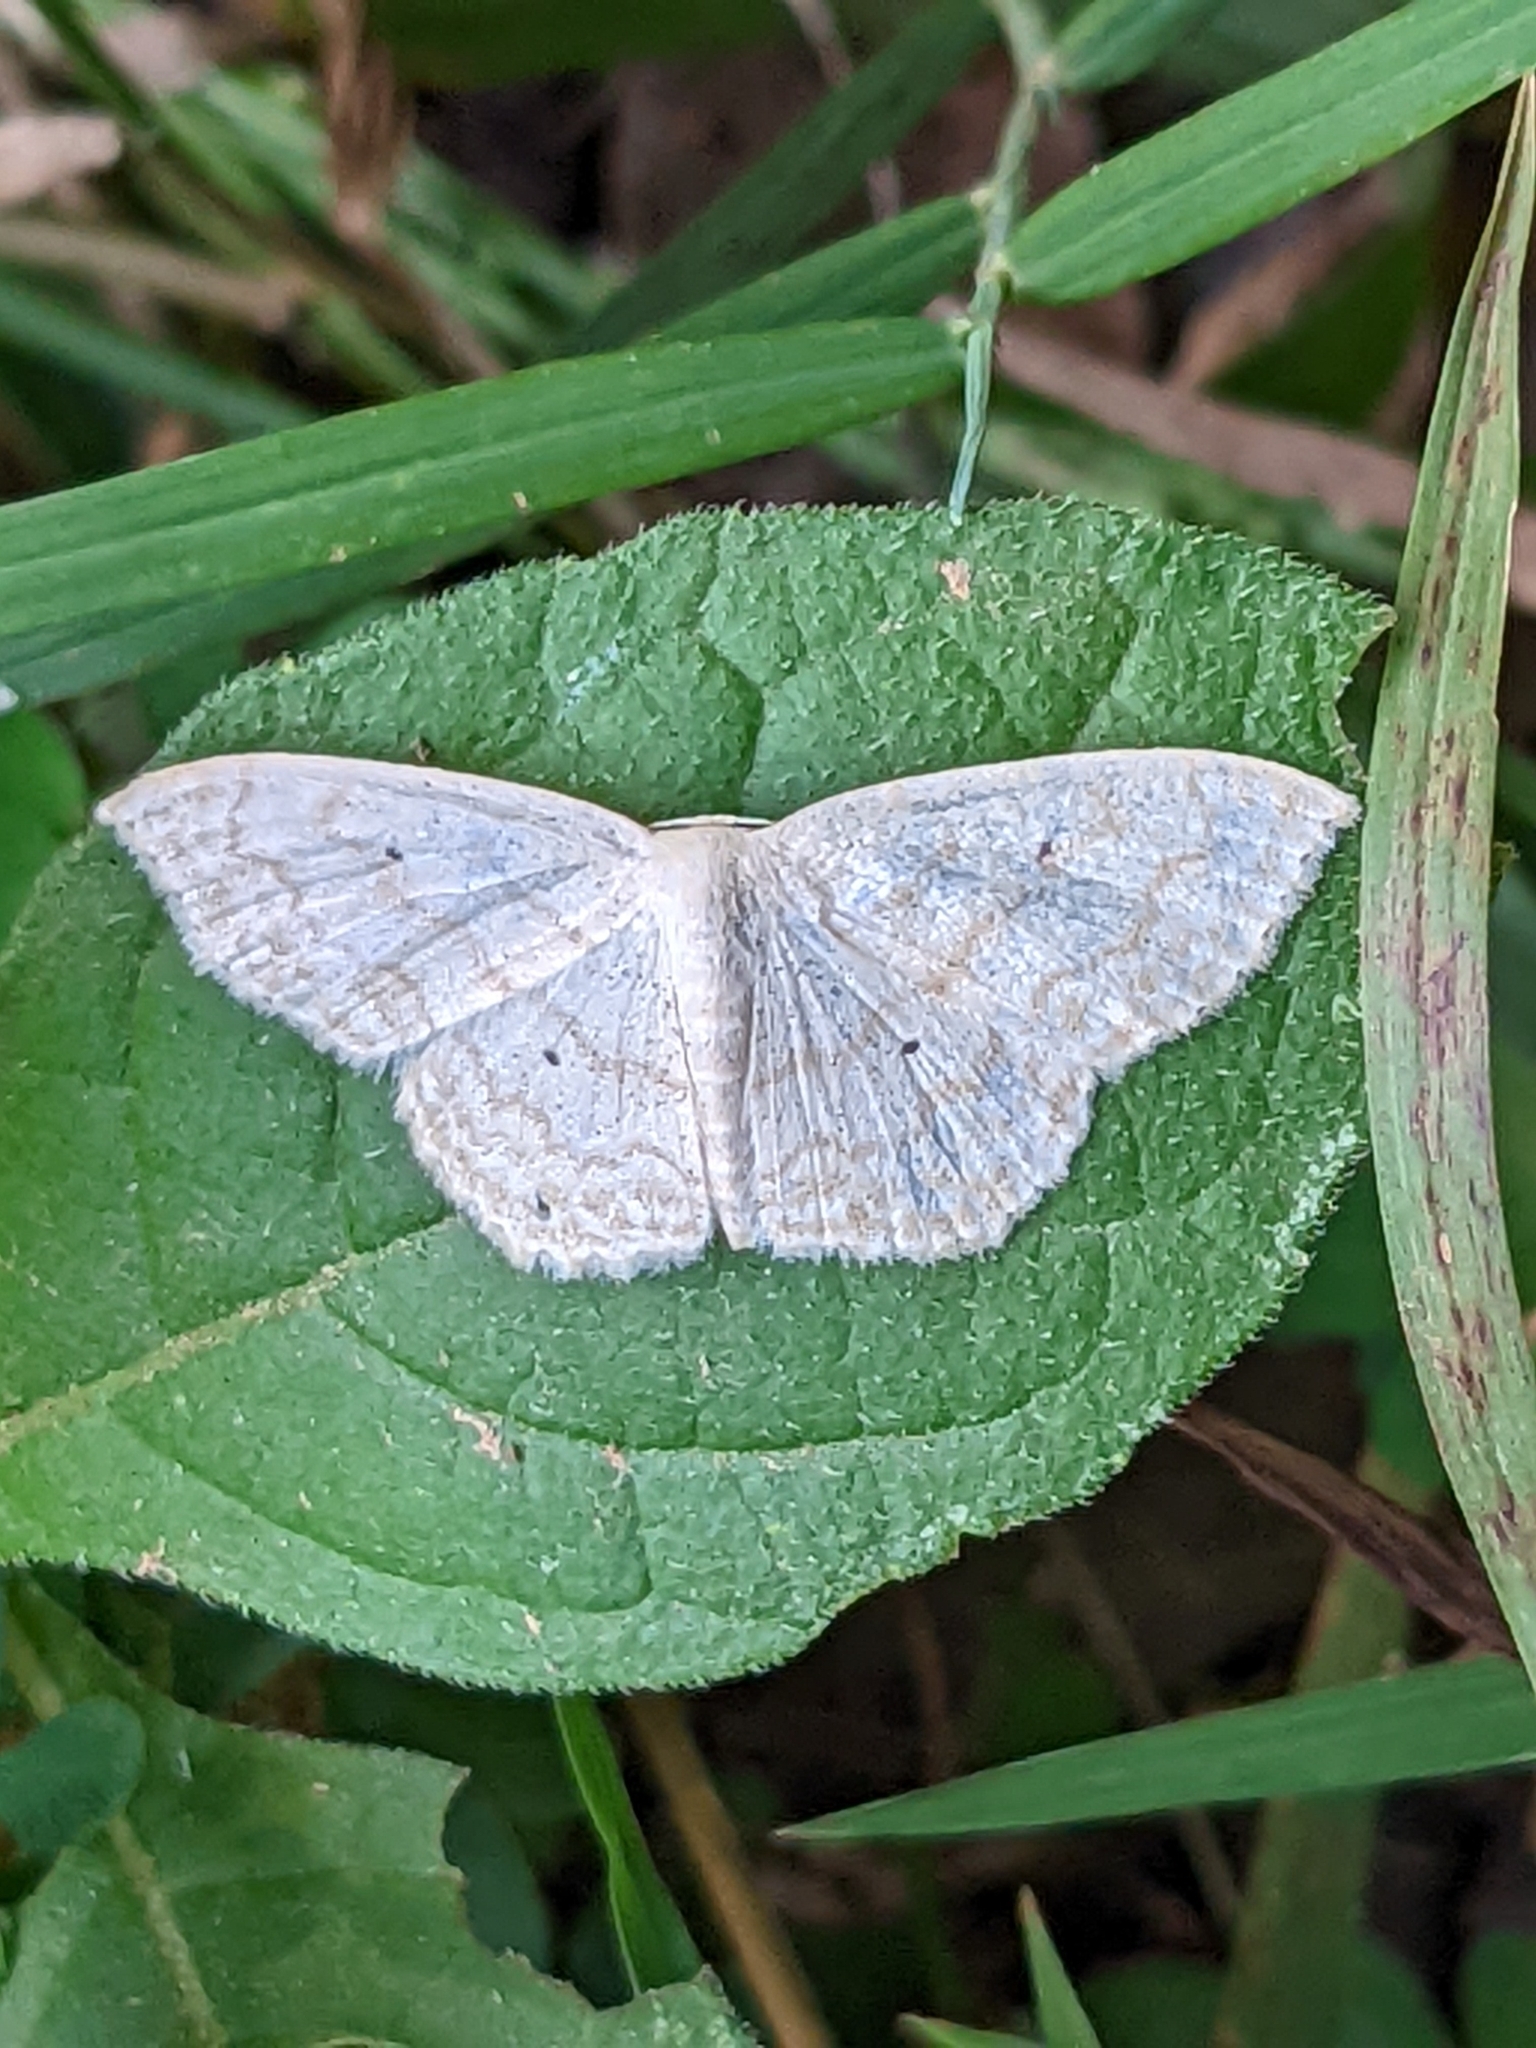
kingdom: Animalia
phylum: Arthropoda
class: Insecta
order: Lepidoptera
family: Geometridae
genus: Scopula
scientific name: Scopula limboundata
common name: Large lace border
